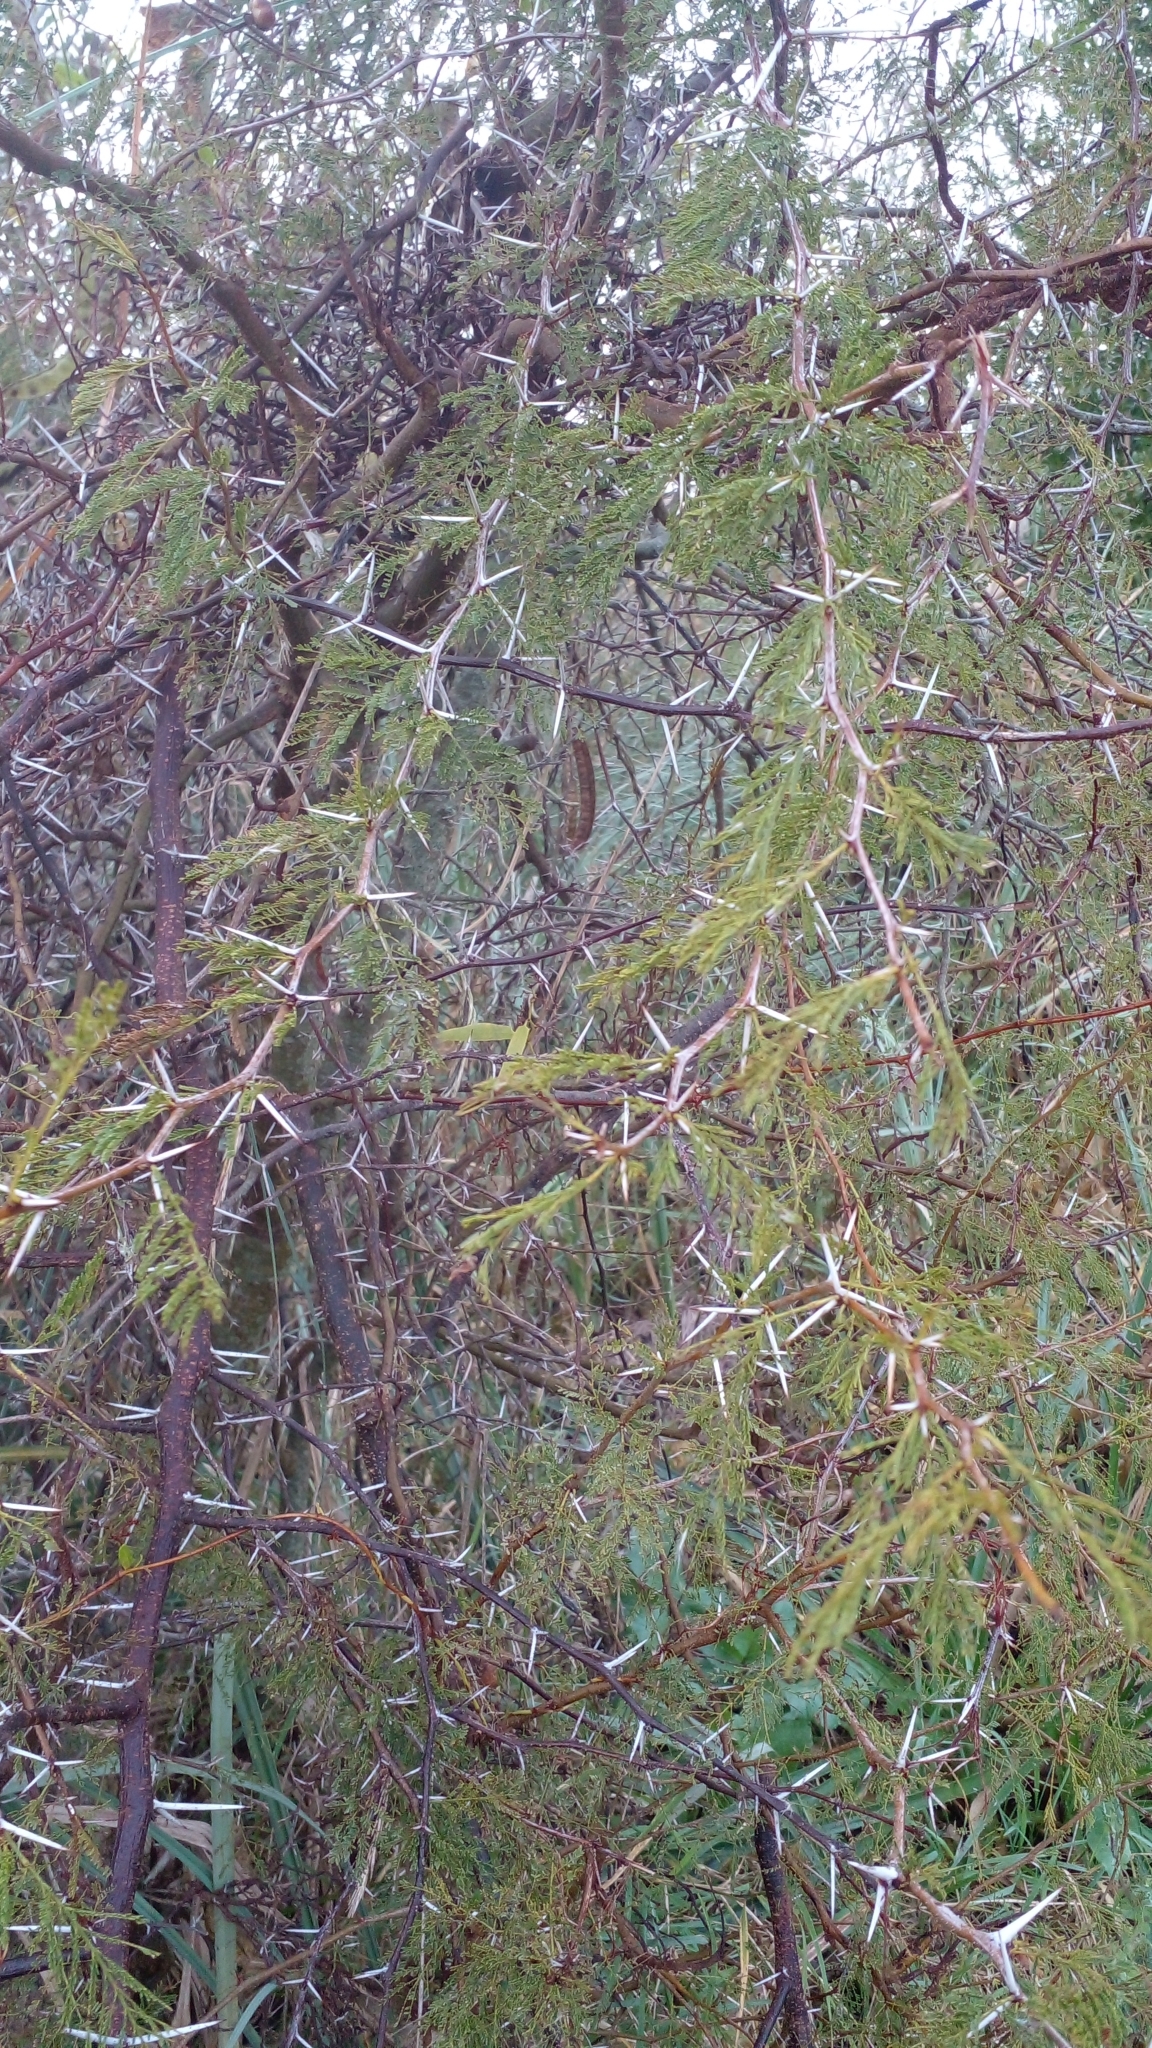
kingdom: Plantae
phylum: Tracheophyta
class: Magnoliopsida
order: Fabales
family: Fabaceae
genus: Vachellia
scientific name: Vachellia caven
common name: Roman cassie
